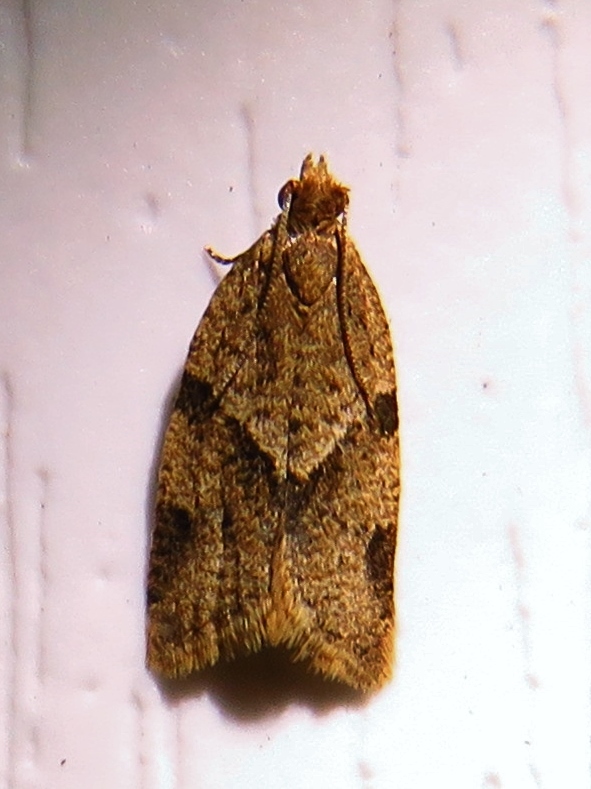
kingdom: Animalia
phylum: Arthropoda
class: Insecta
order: Lepidoptera
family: Tortricidae
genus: Clepsis
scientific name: Clepsis peritana
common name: Garden tortrix
